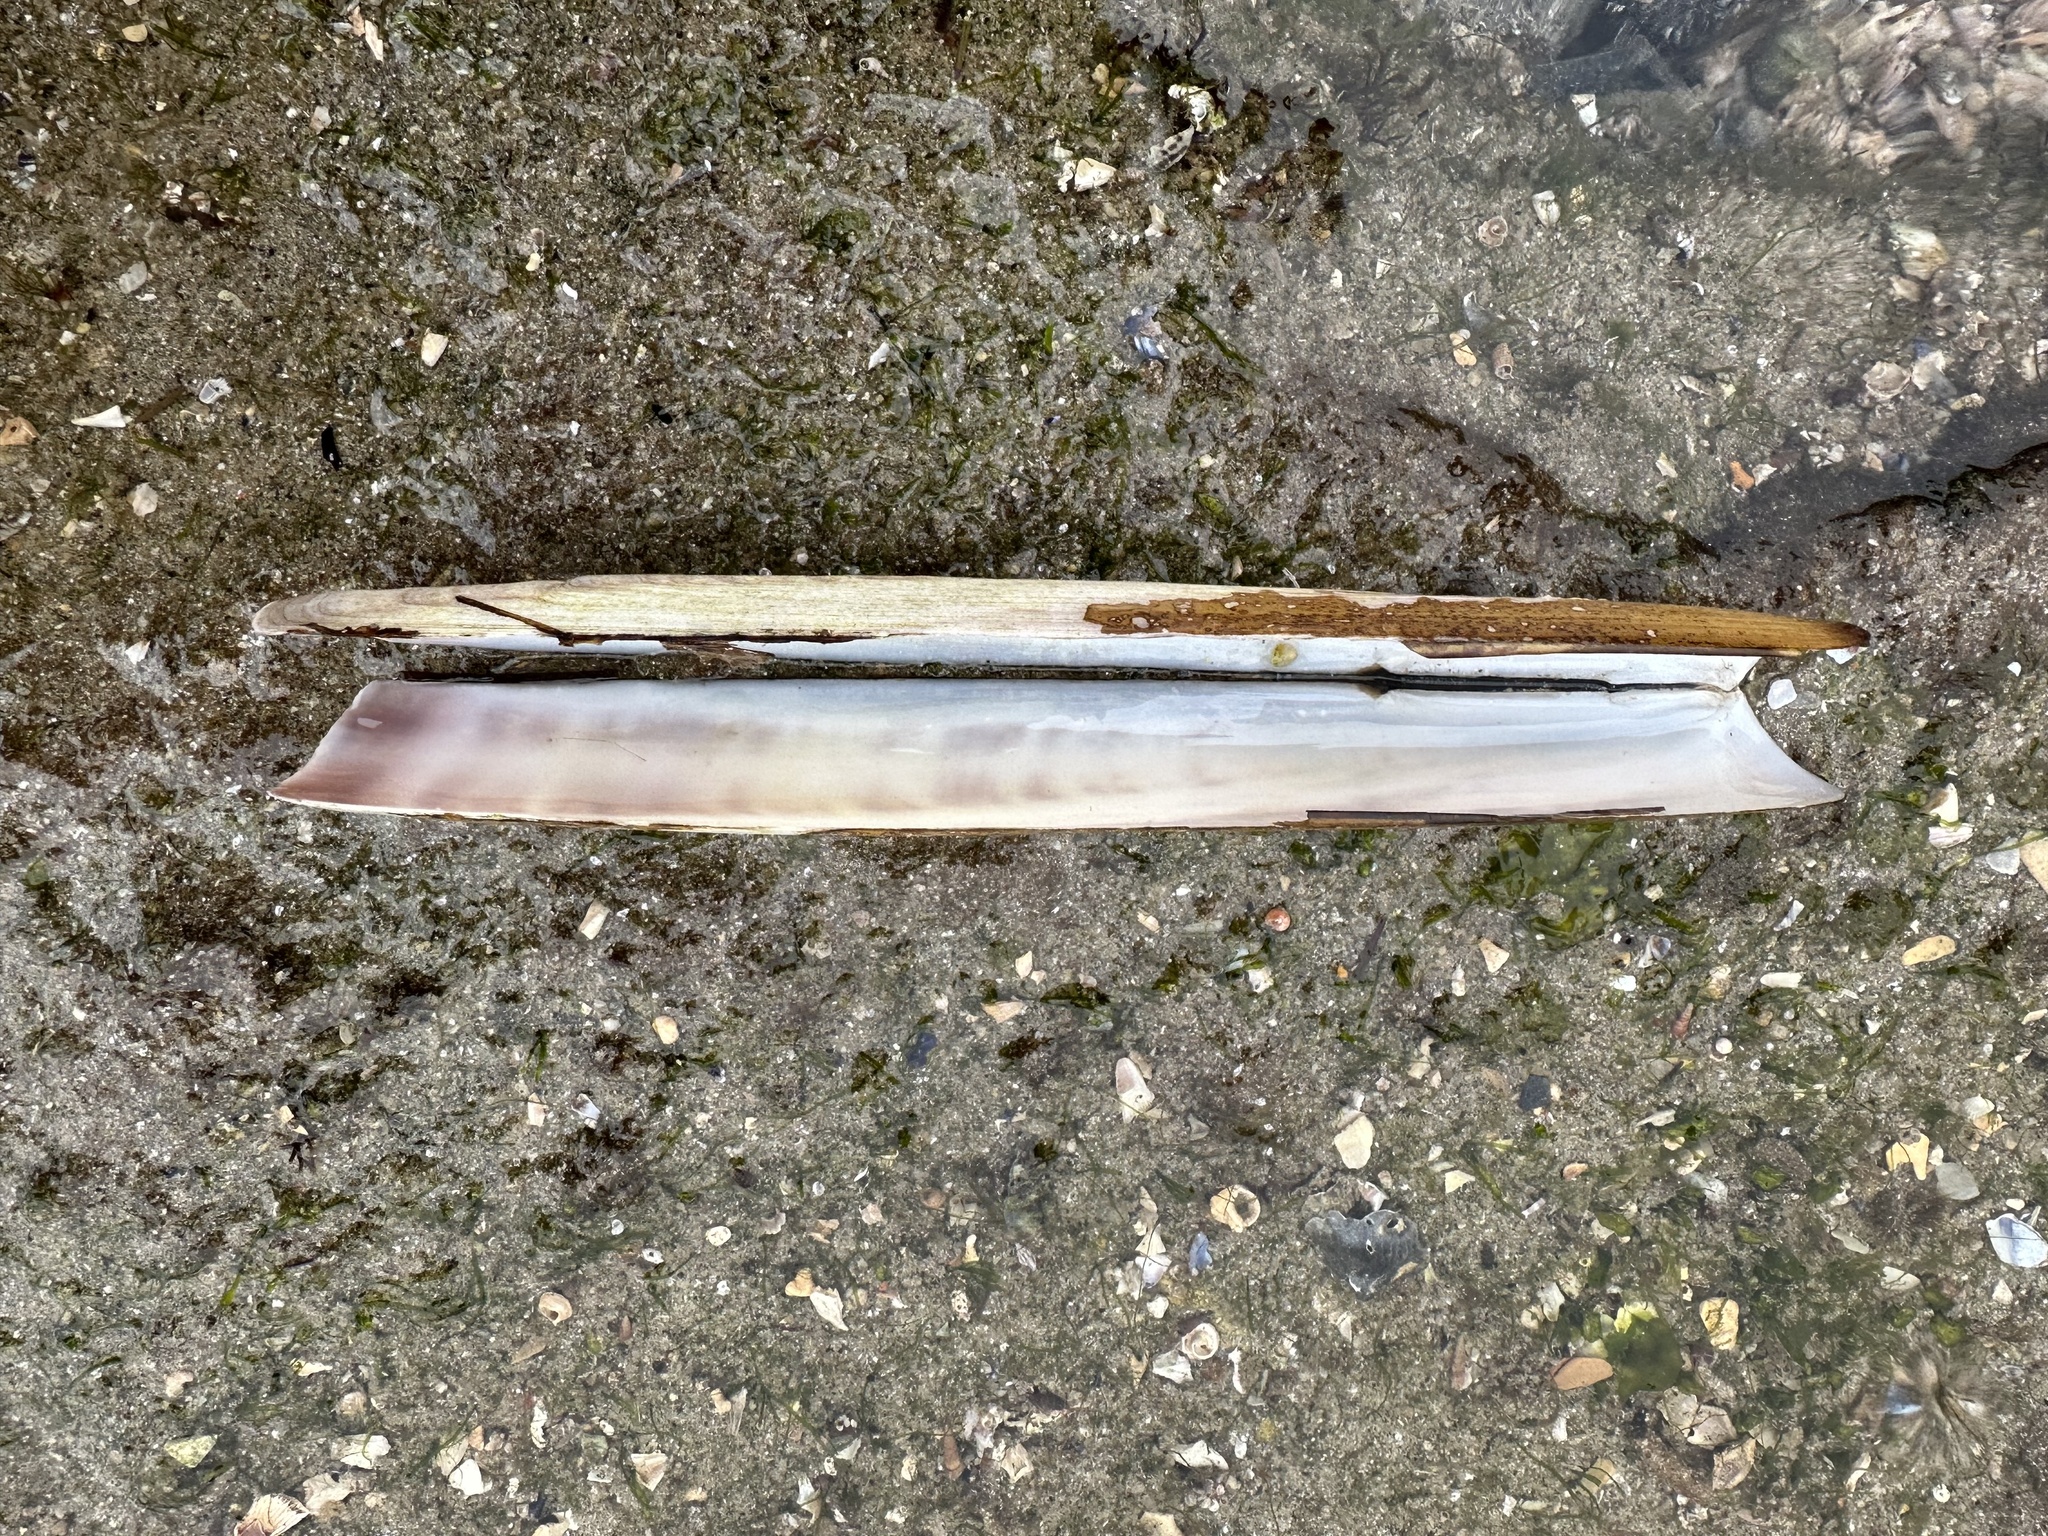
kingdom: Animalia
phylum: Mollusca
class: Bivalvia
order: Adapedonta
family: Pharidae
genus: Ensis
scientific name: Ensis siliqua
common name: Pod razor shell
